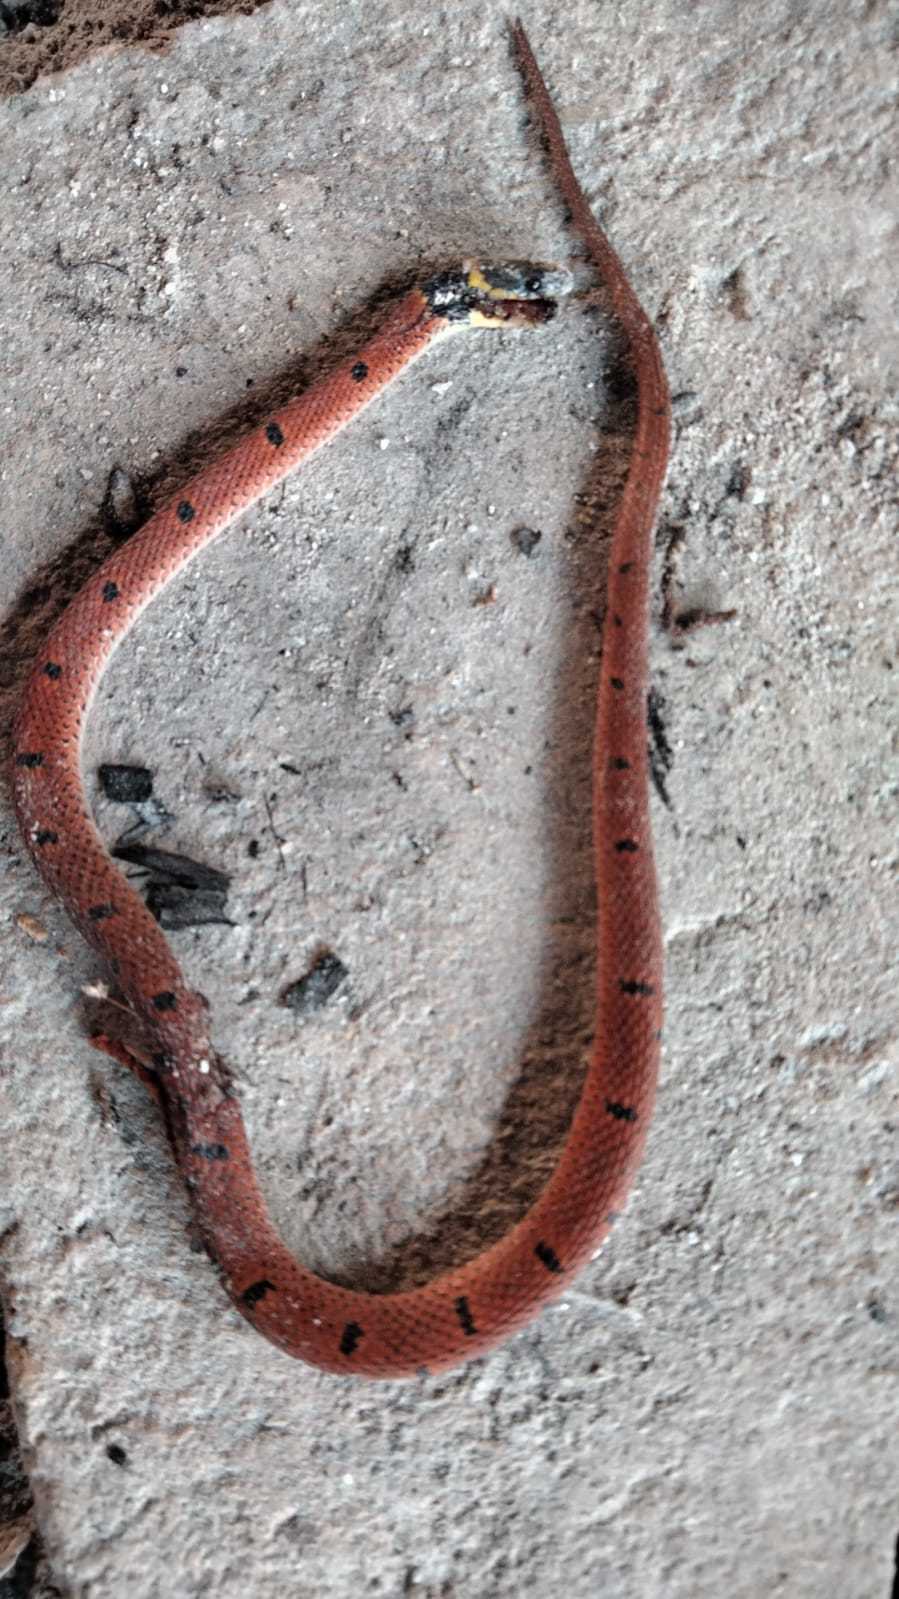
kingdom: Animalia
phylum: Chordata
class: Squamata
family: Colubridae
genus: Ninia
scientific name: Ninia sebae
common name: Redback coffee snake
